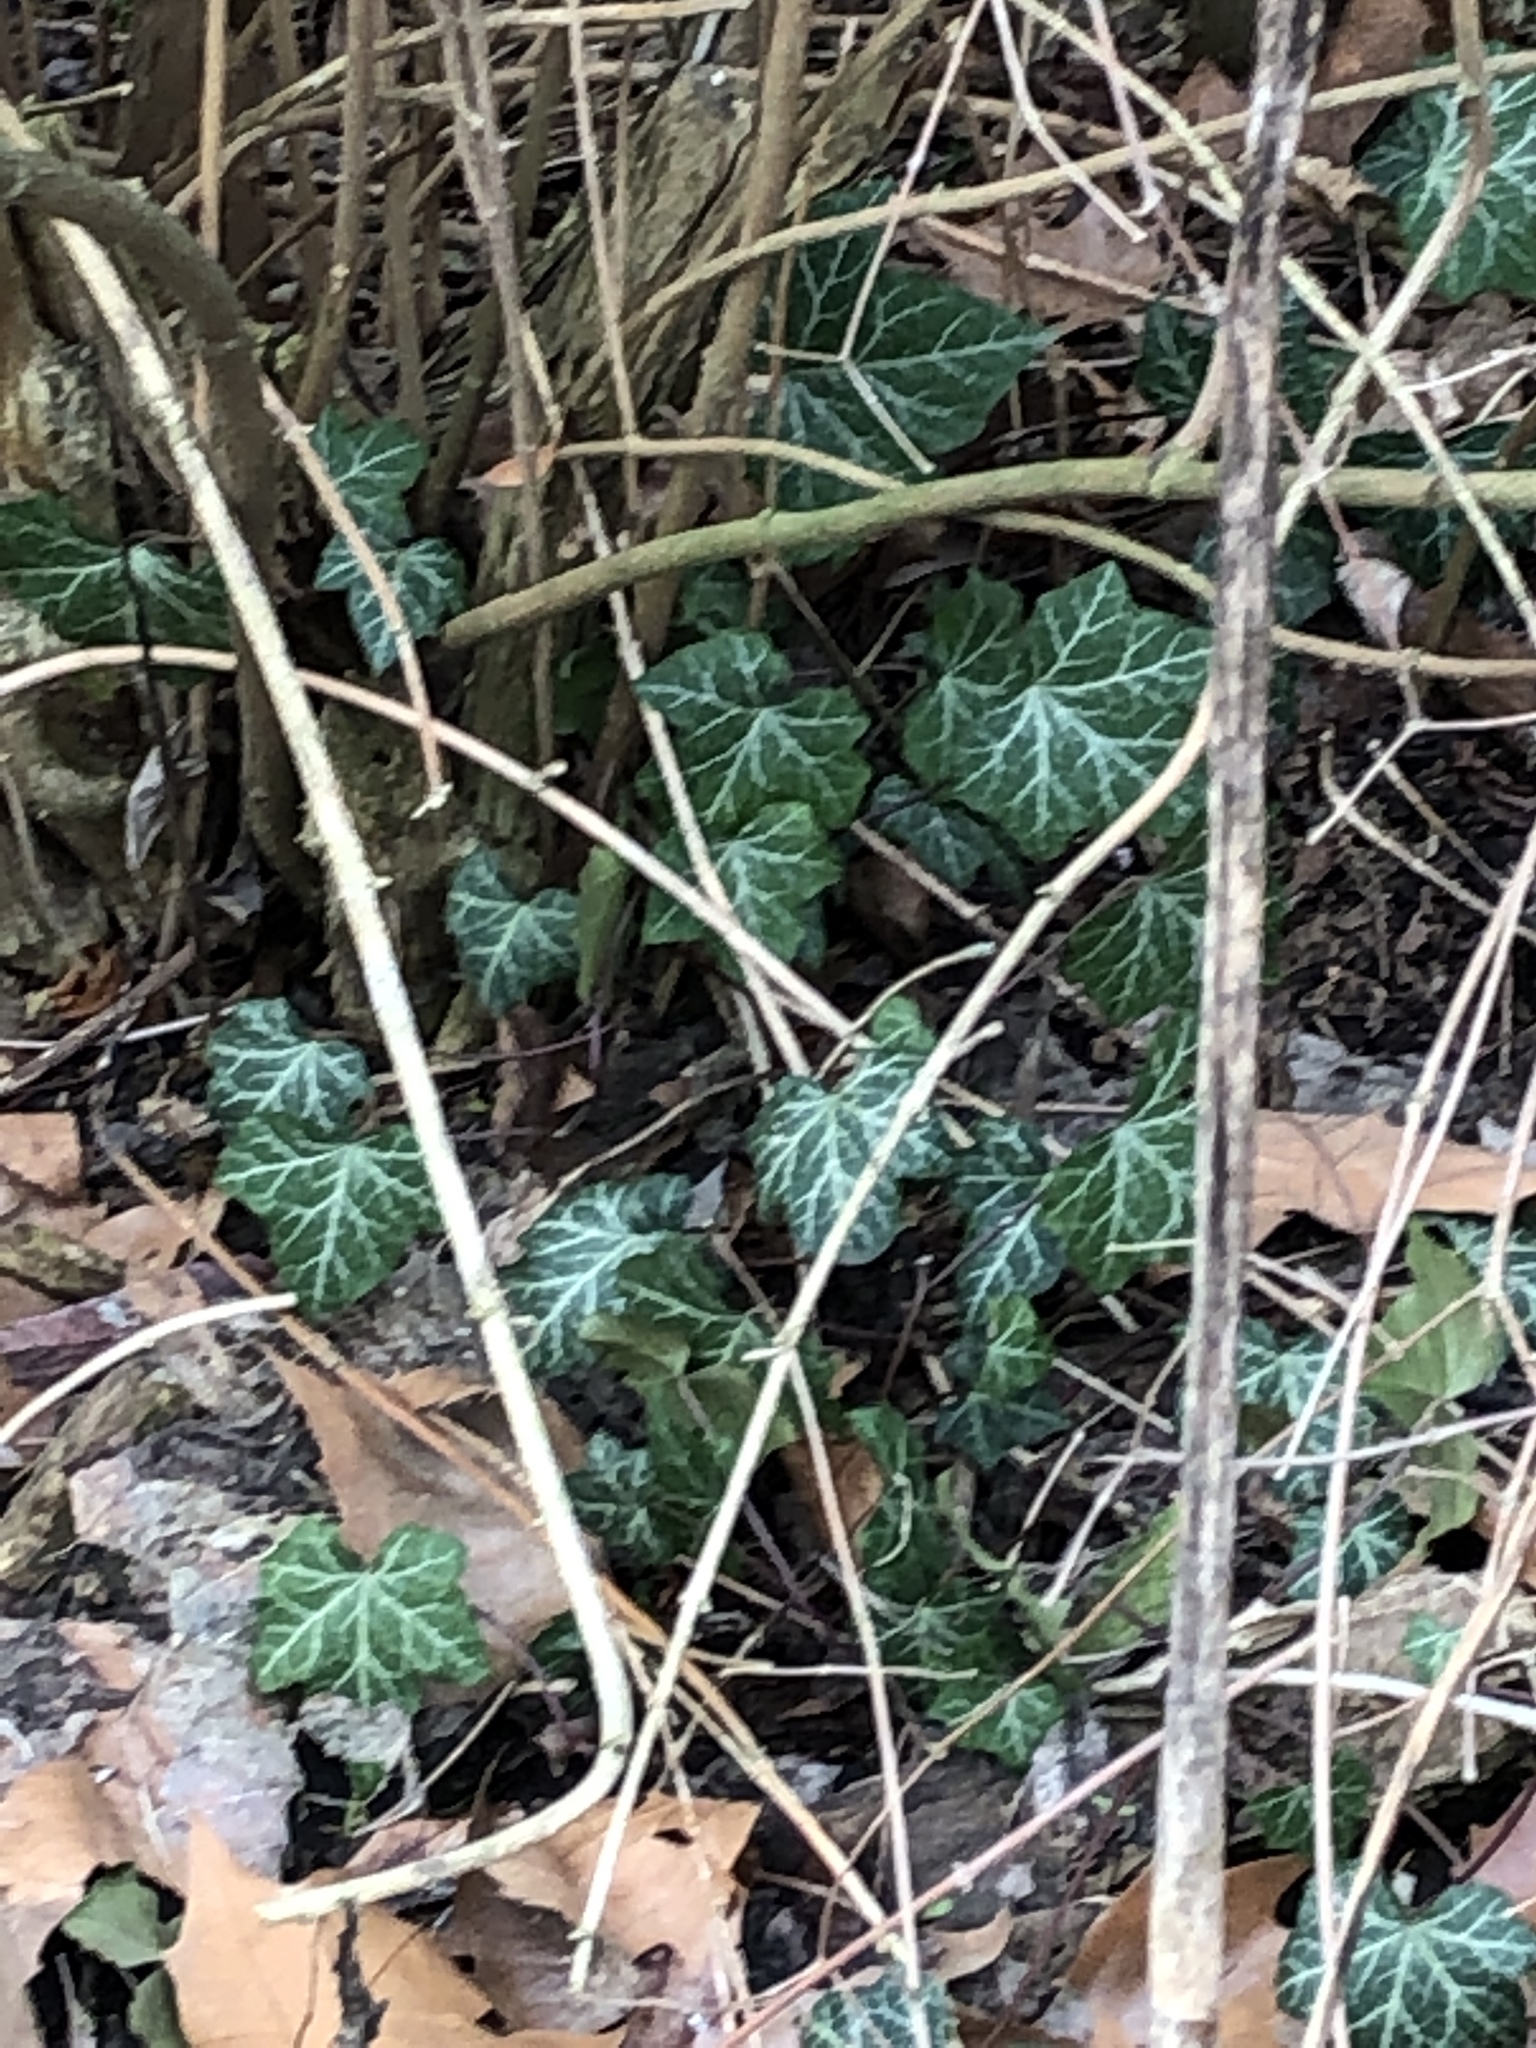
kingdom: Plantae
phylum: Tracheophyta
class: Magnoliopsida
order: Apiales
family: Araliaceae
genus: Hedera
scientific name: Hedera helix
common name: Ivy
